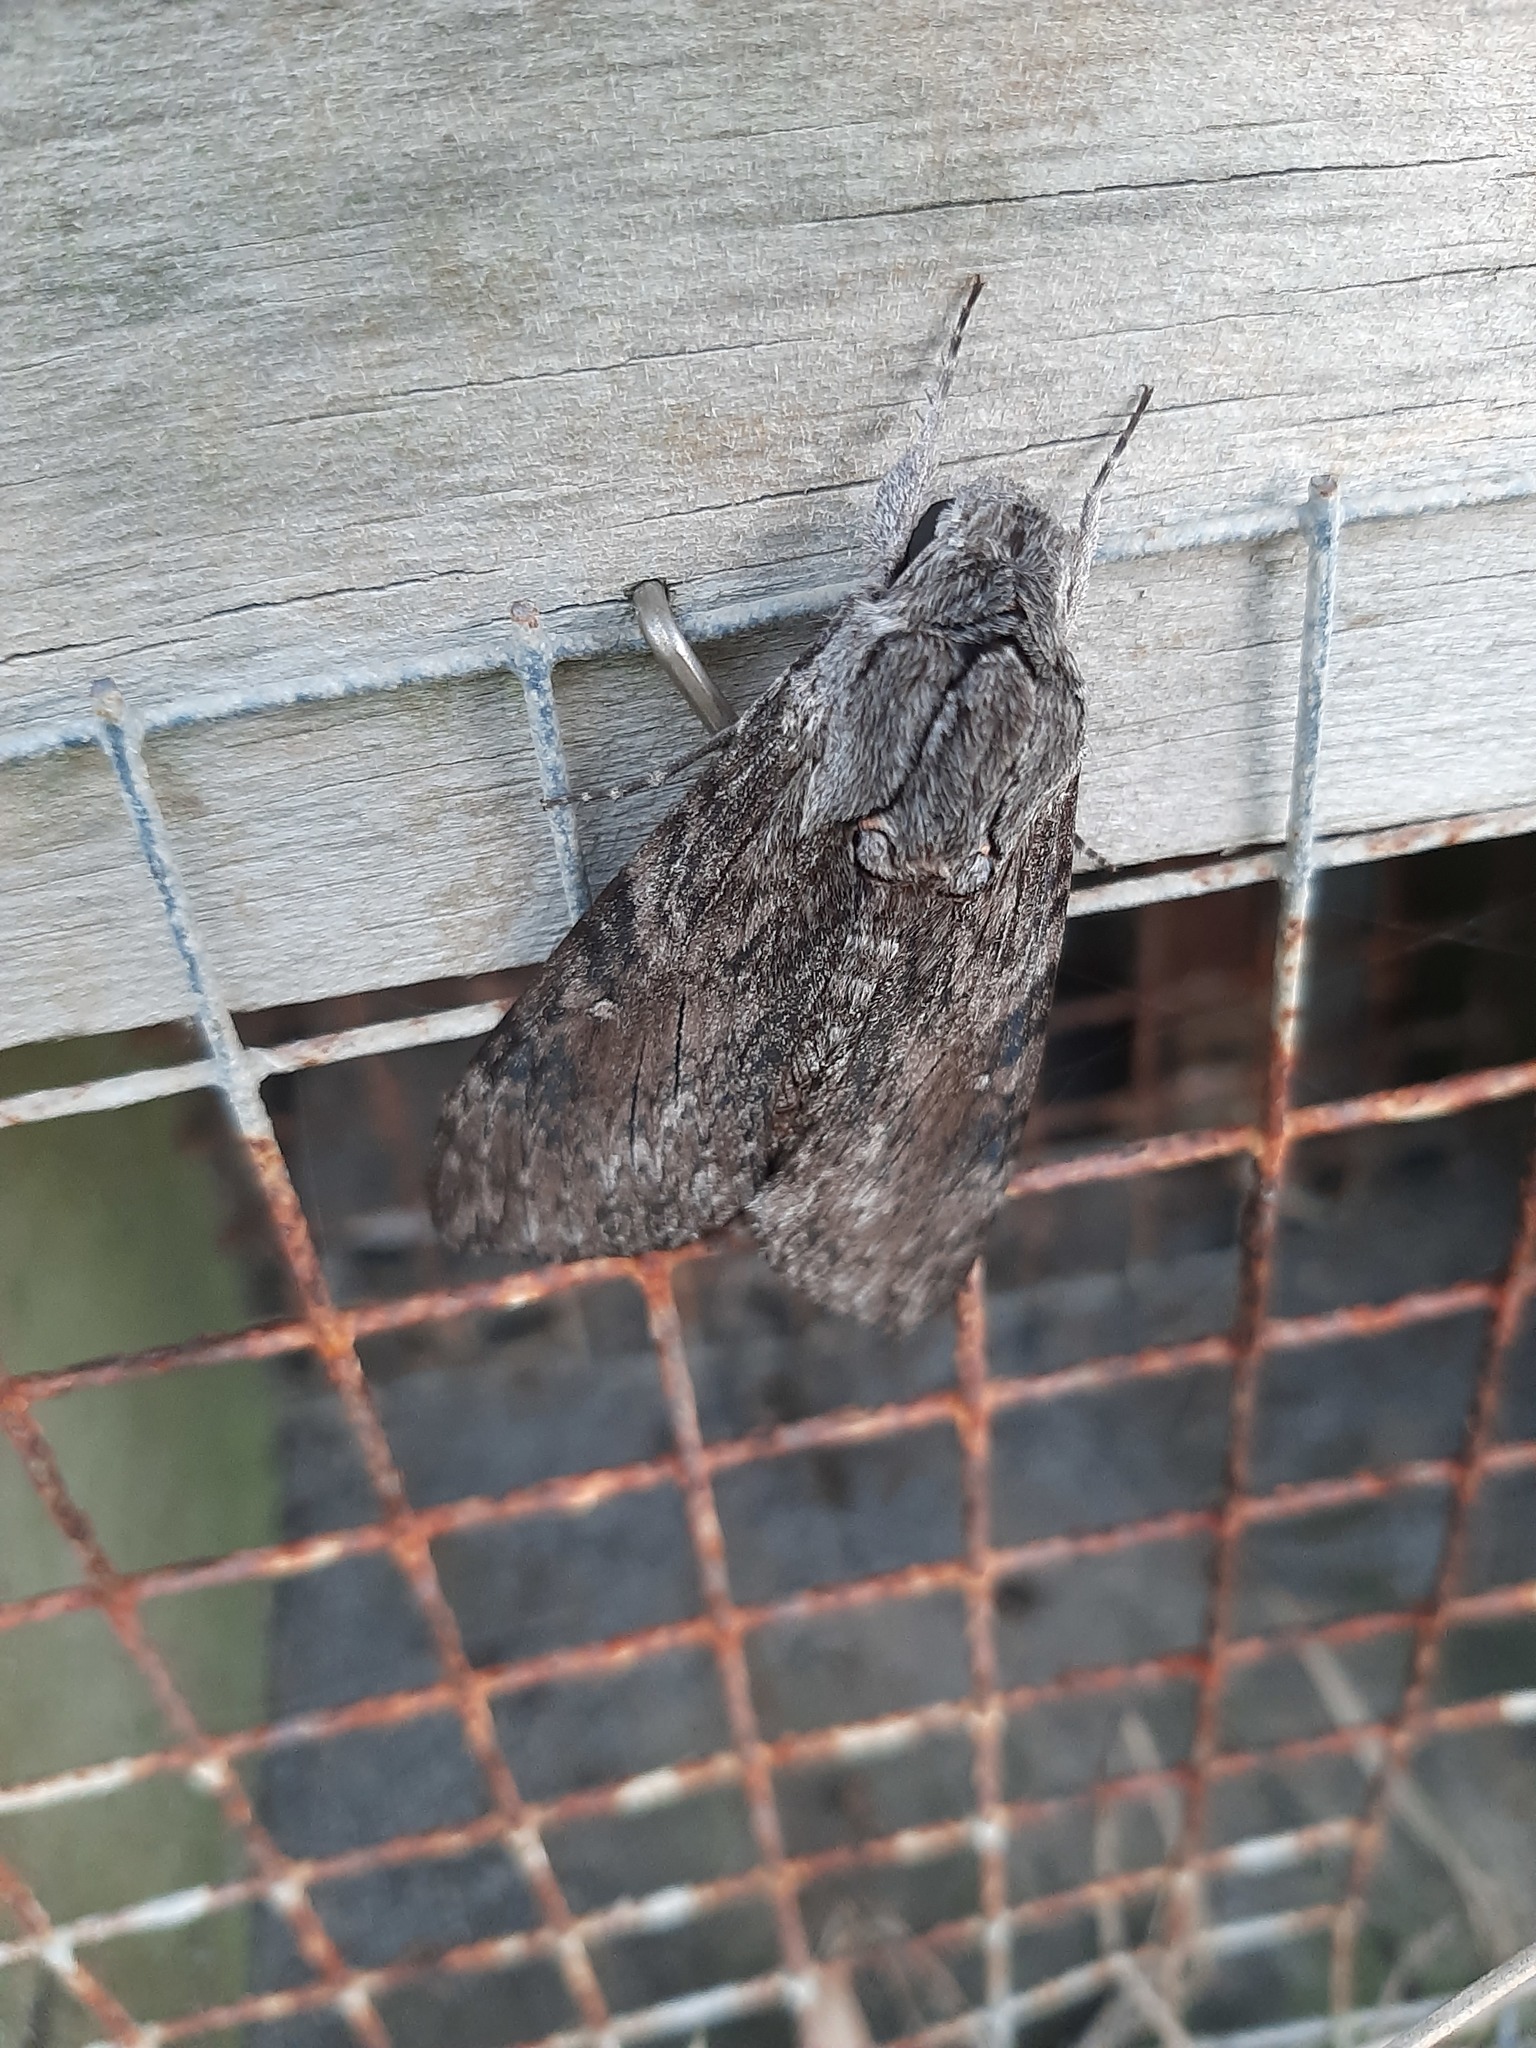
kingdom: Animalia
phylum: Arthropoda
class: Insecta
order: Lepidoptera
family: Sphingidae
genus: Agrius
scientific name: Agrius convolvuli
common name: Convolvulus hawkmoth
